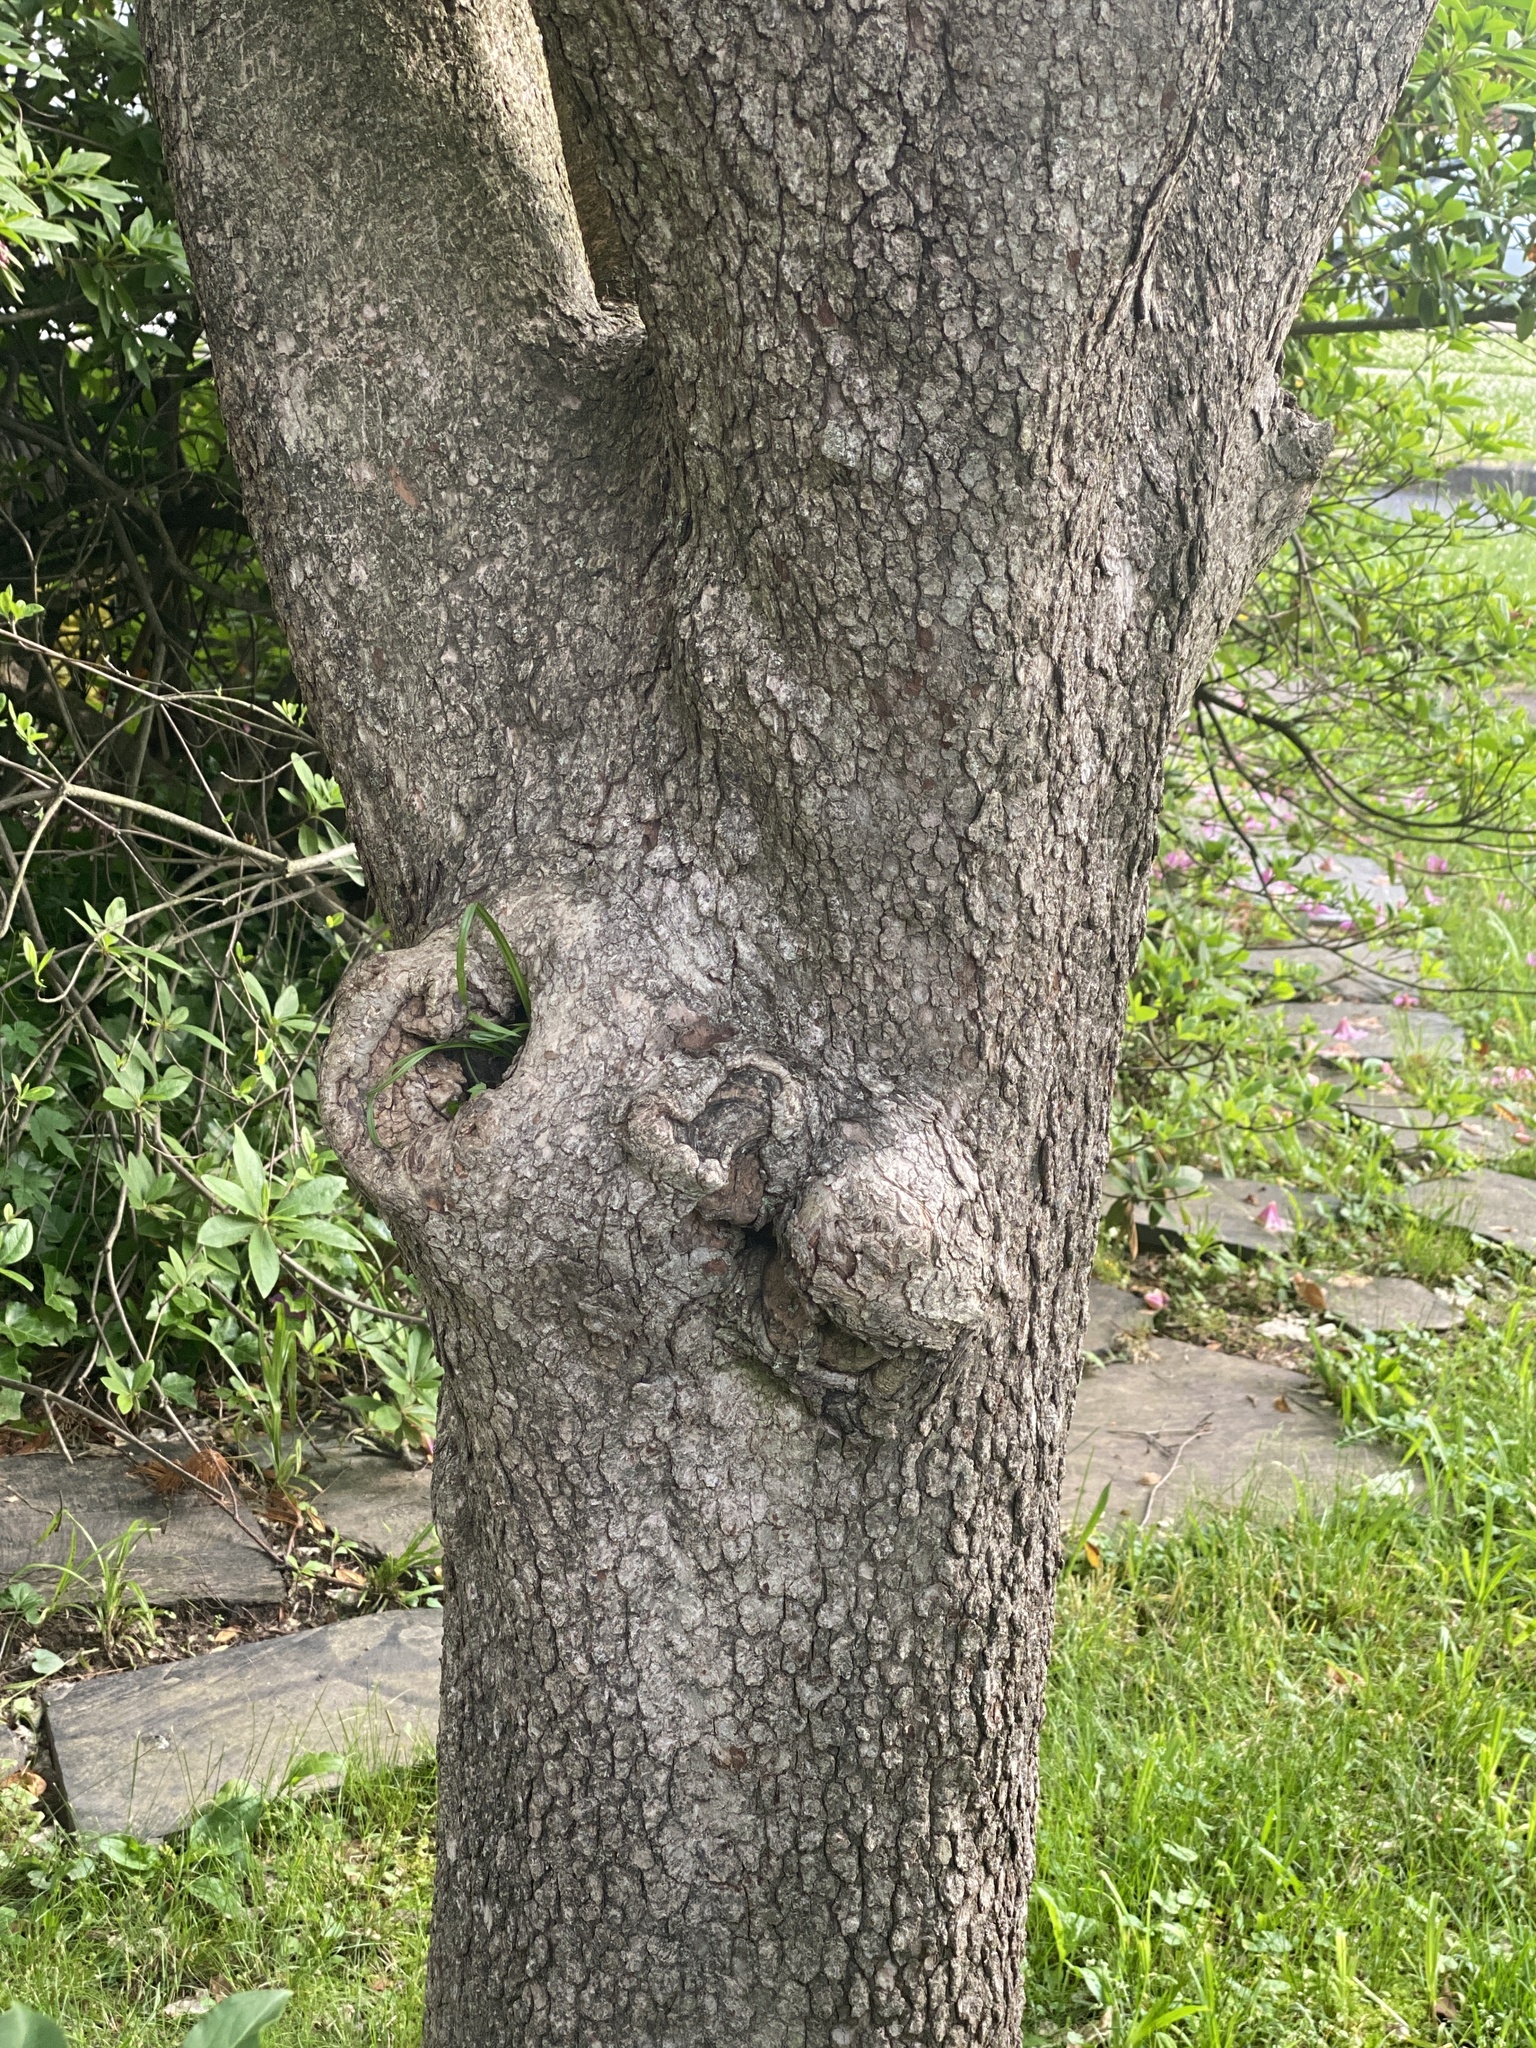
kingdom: Plantae
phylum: Tracheophyta
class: Magnoliopsida
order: Cornales
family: Cornaceae
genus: Cornus
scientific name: Cornus florida
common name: Flowering dogwood
